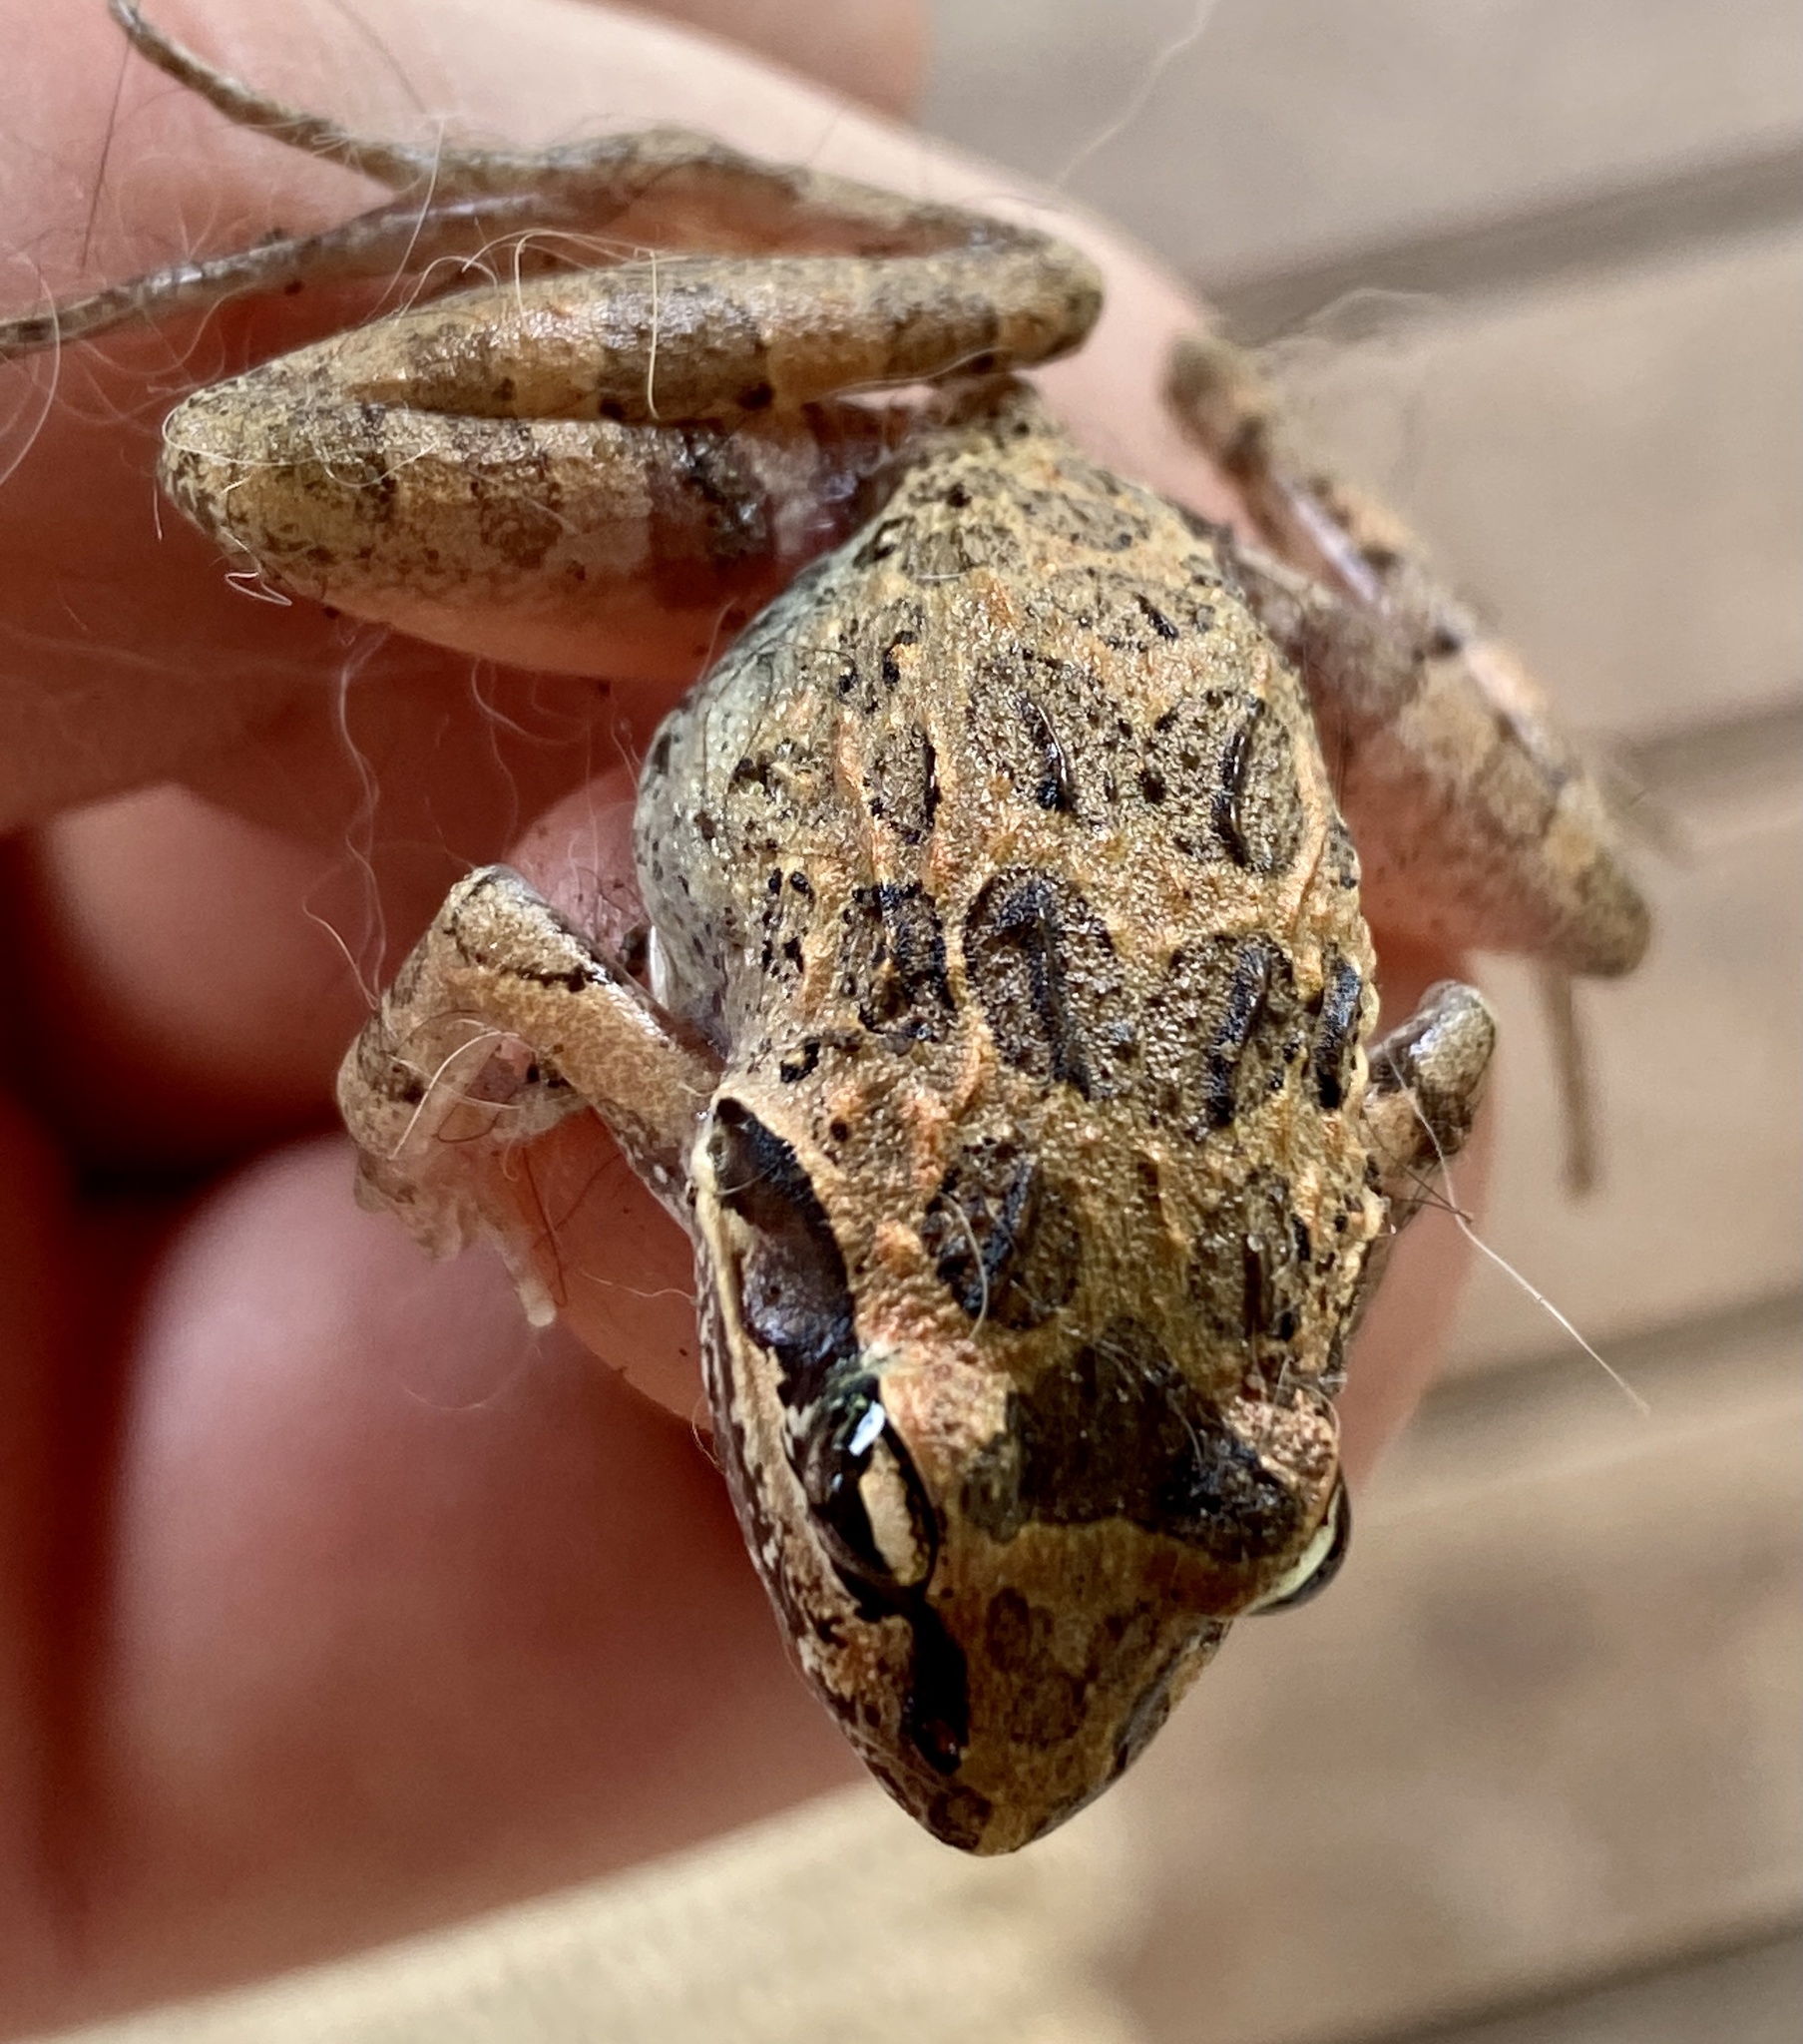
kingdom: Animalia
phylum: Chordata
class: Amphibia
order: Anura
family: Pyxicephalidae
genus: Strongylopus
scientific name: Strongylopus grayii
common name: Gray's stream frog
